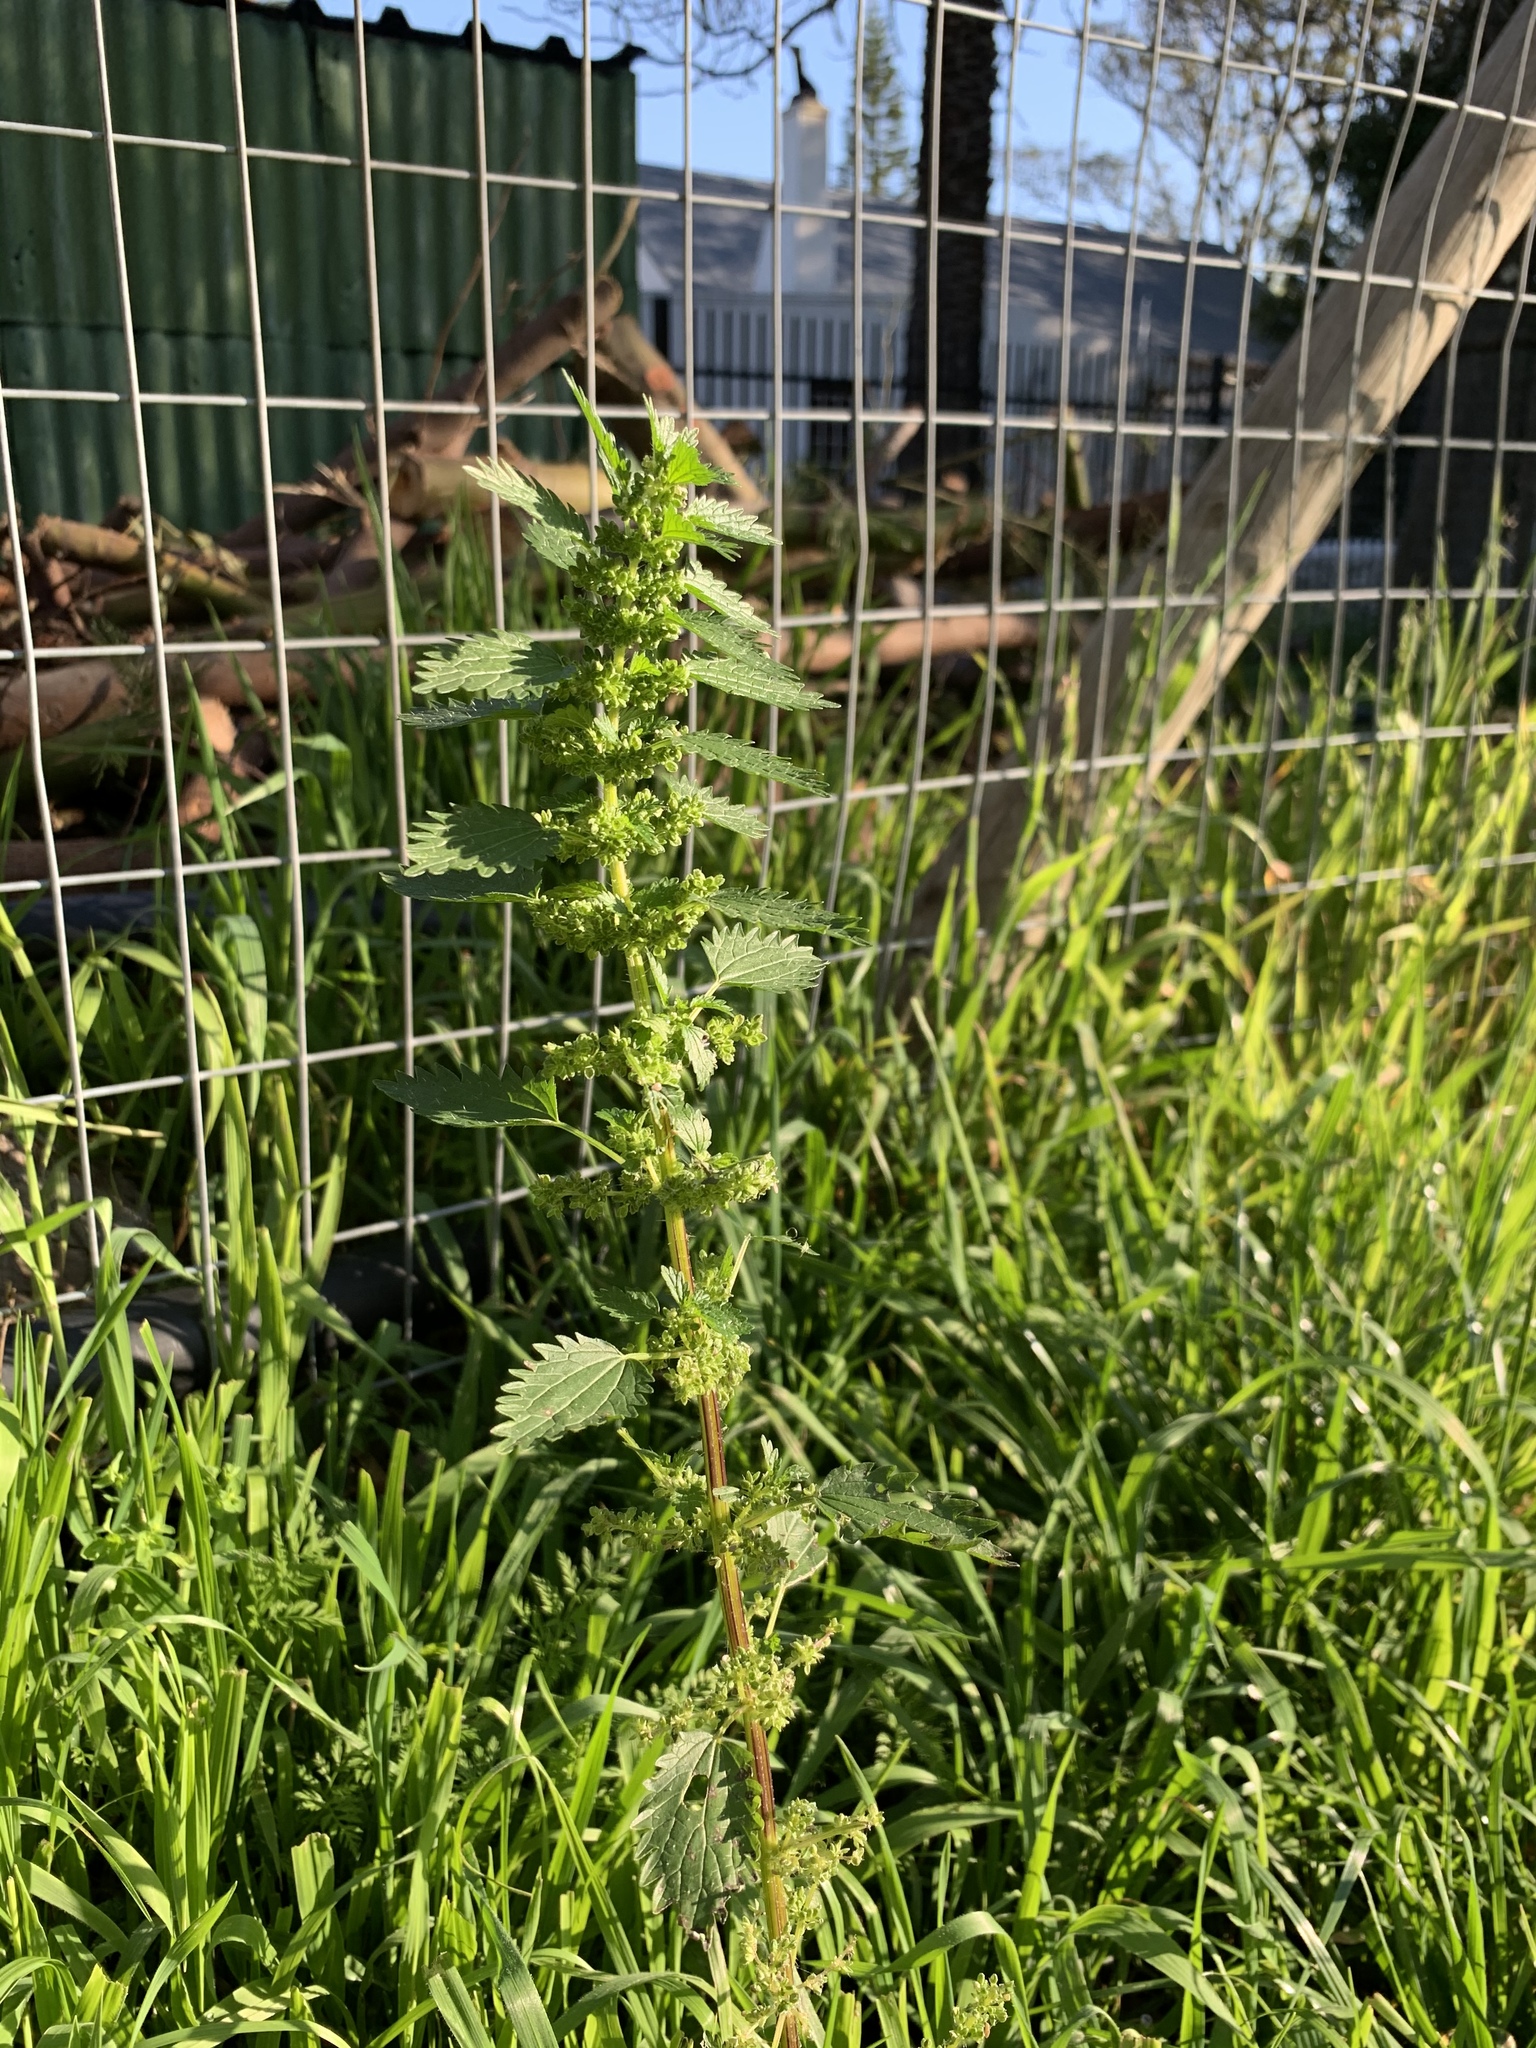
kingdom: Plantae
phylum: Tracheophyta
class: Magnoliopsida
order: Rosales
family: Urticaceae
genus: Urtica
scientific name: Urtica urens
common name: Dwarf nettle
